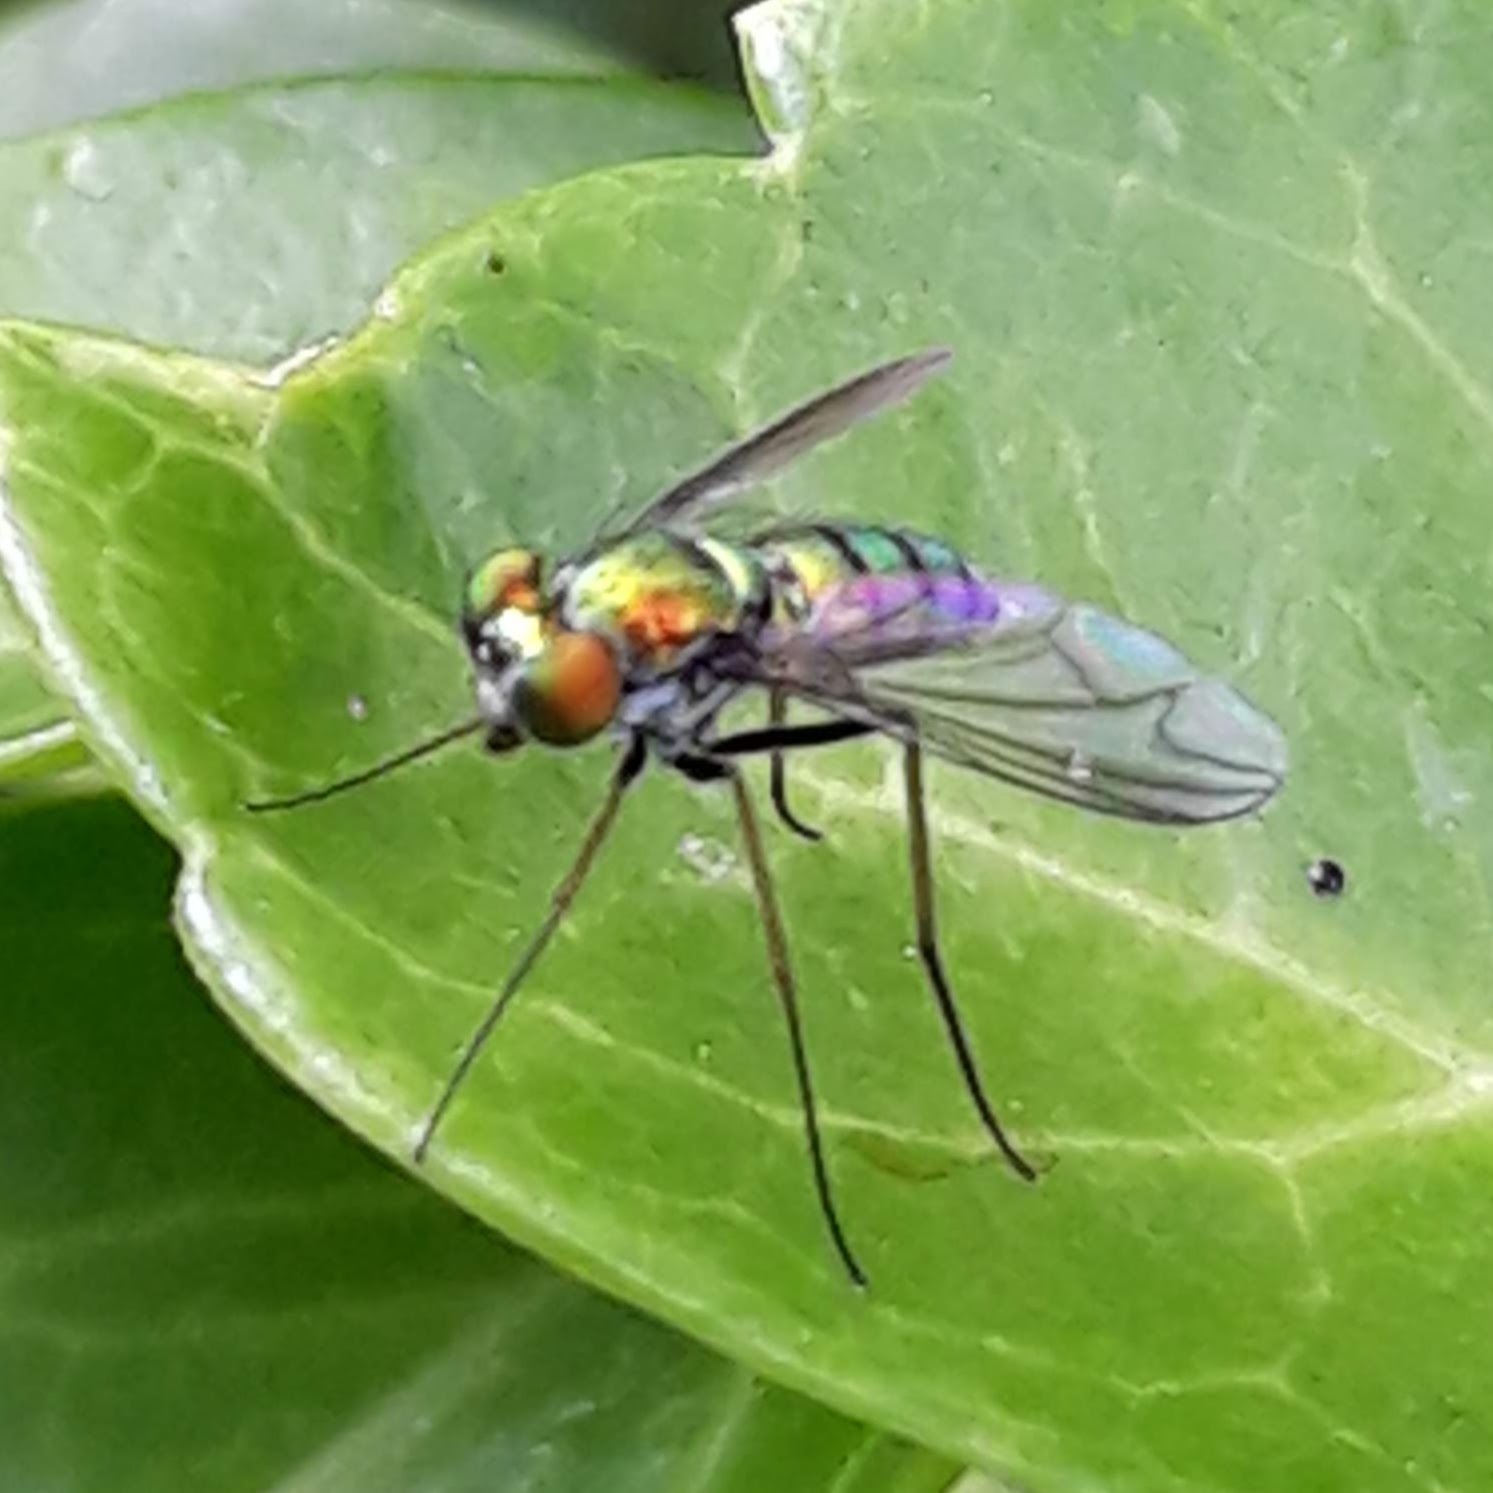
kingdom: Animalia
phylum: Arthropoda
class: Insecta
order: Diptera
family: Dolichopodidae
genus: Condylostylus
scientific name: Condylostylus
